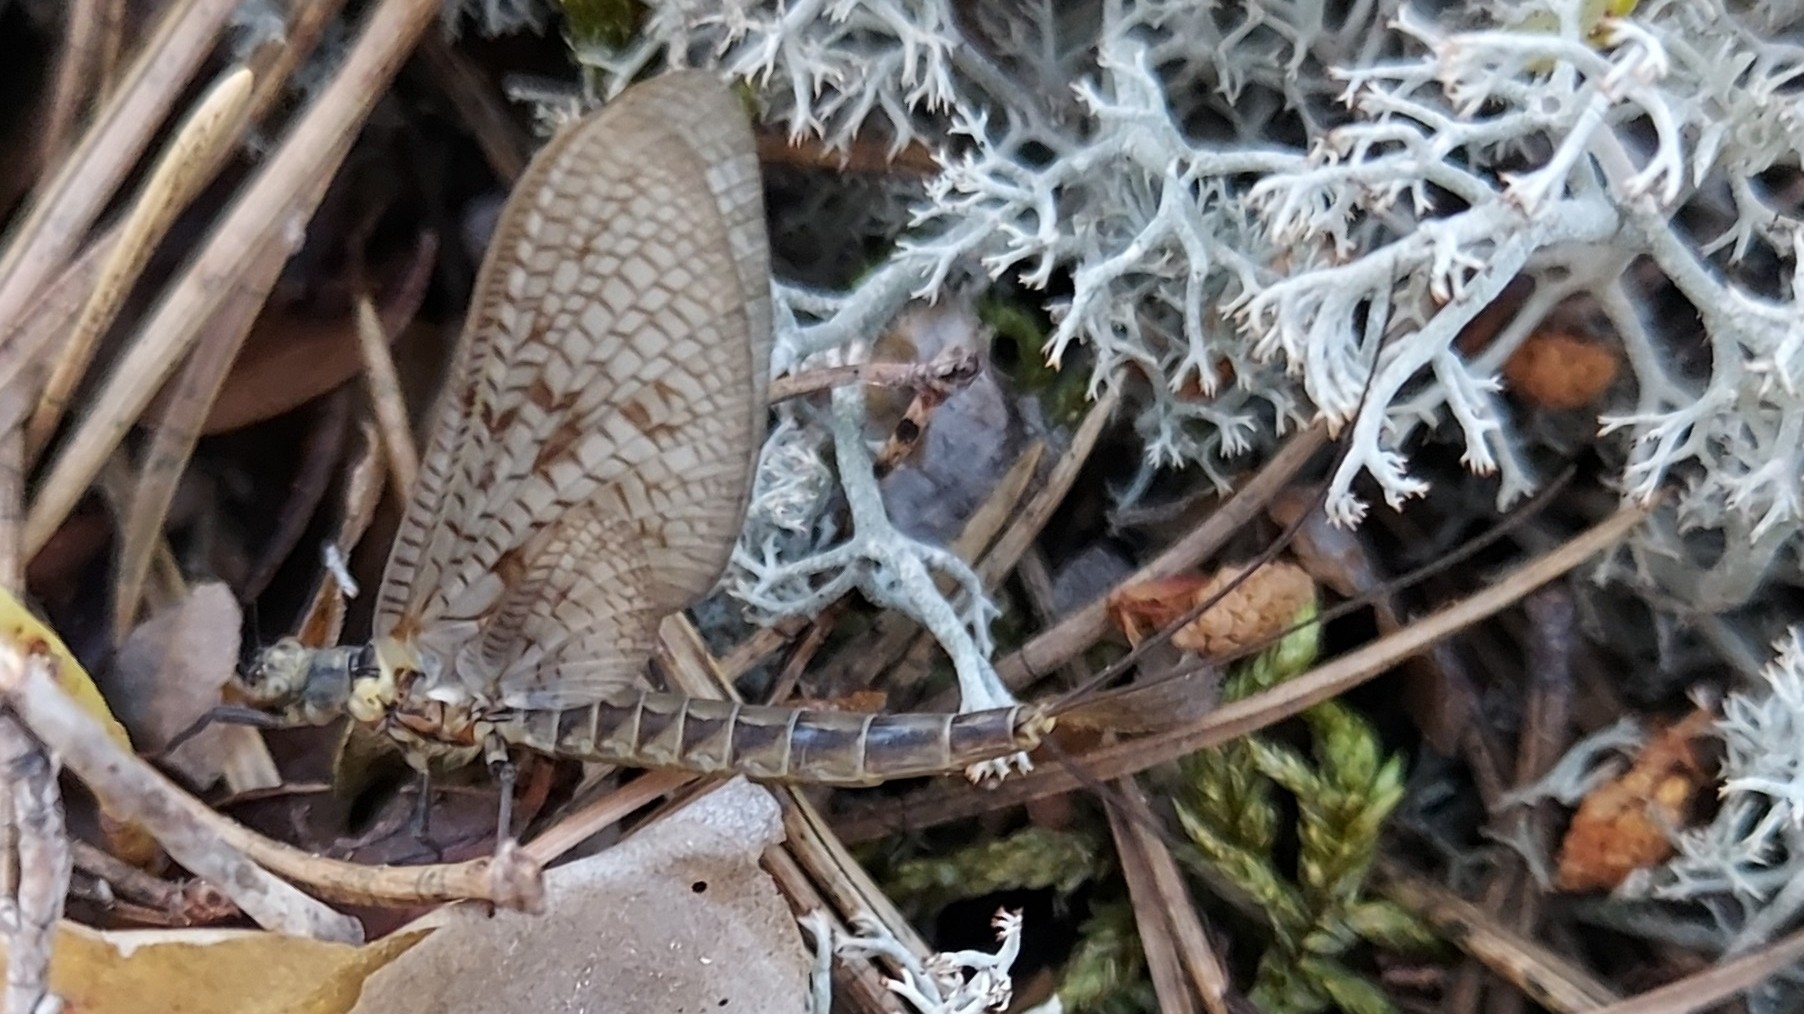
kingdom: Animalia
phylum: Arthropoda
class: Insecta
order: Ephemeroptera
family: Ephemeridae
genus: Ephemera
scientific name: Ephemera vulgata
